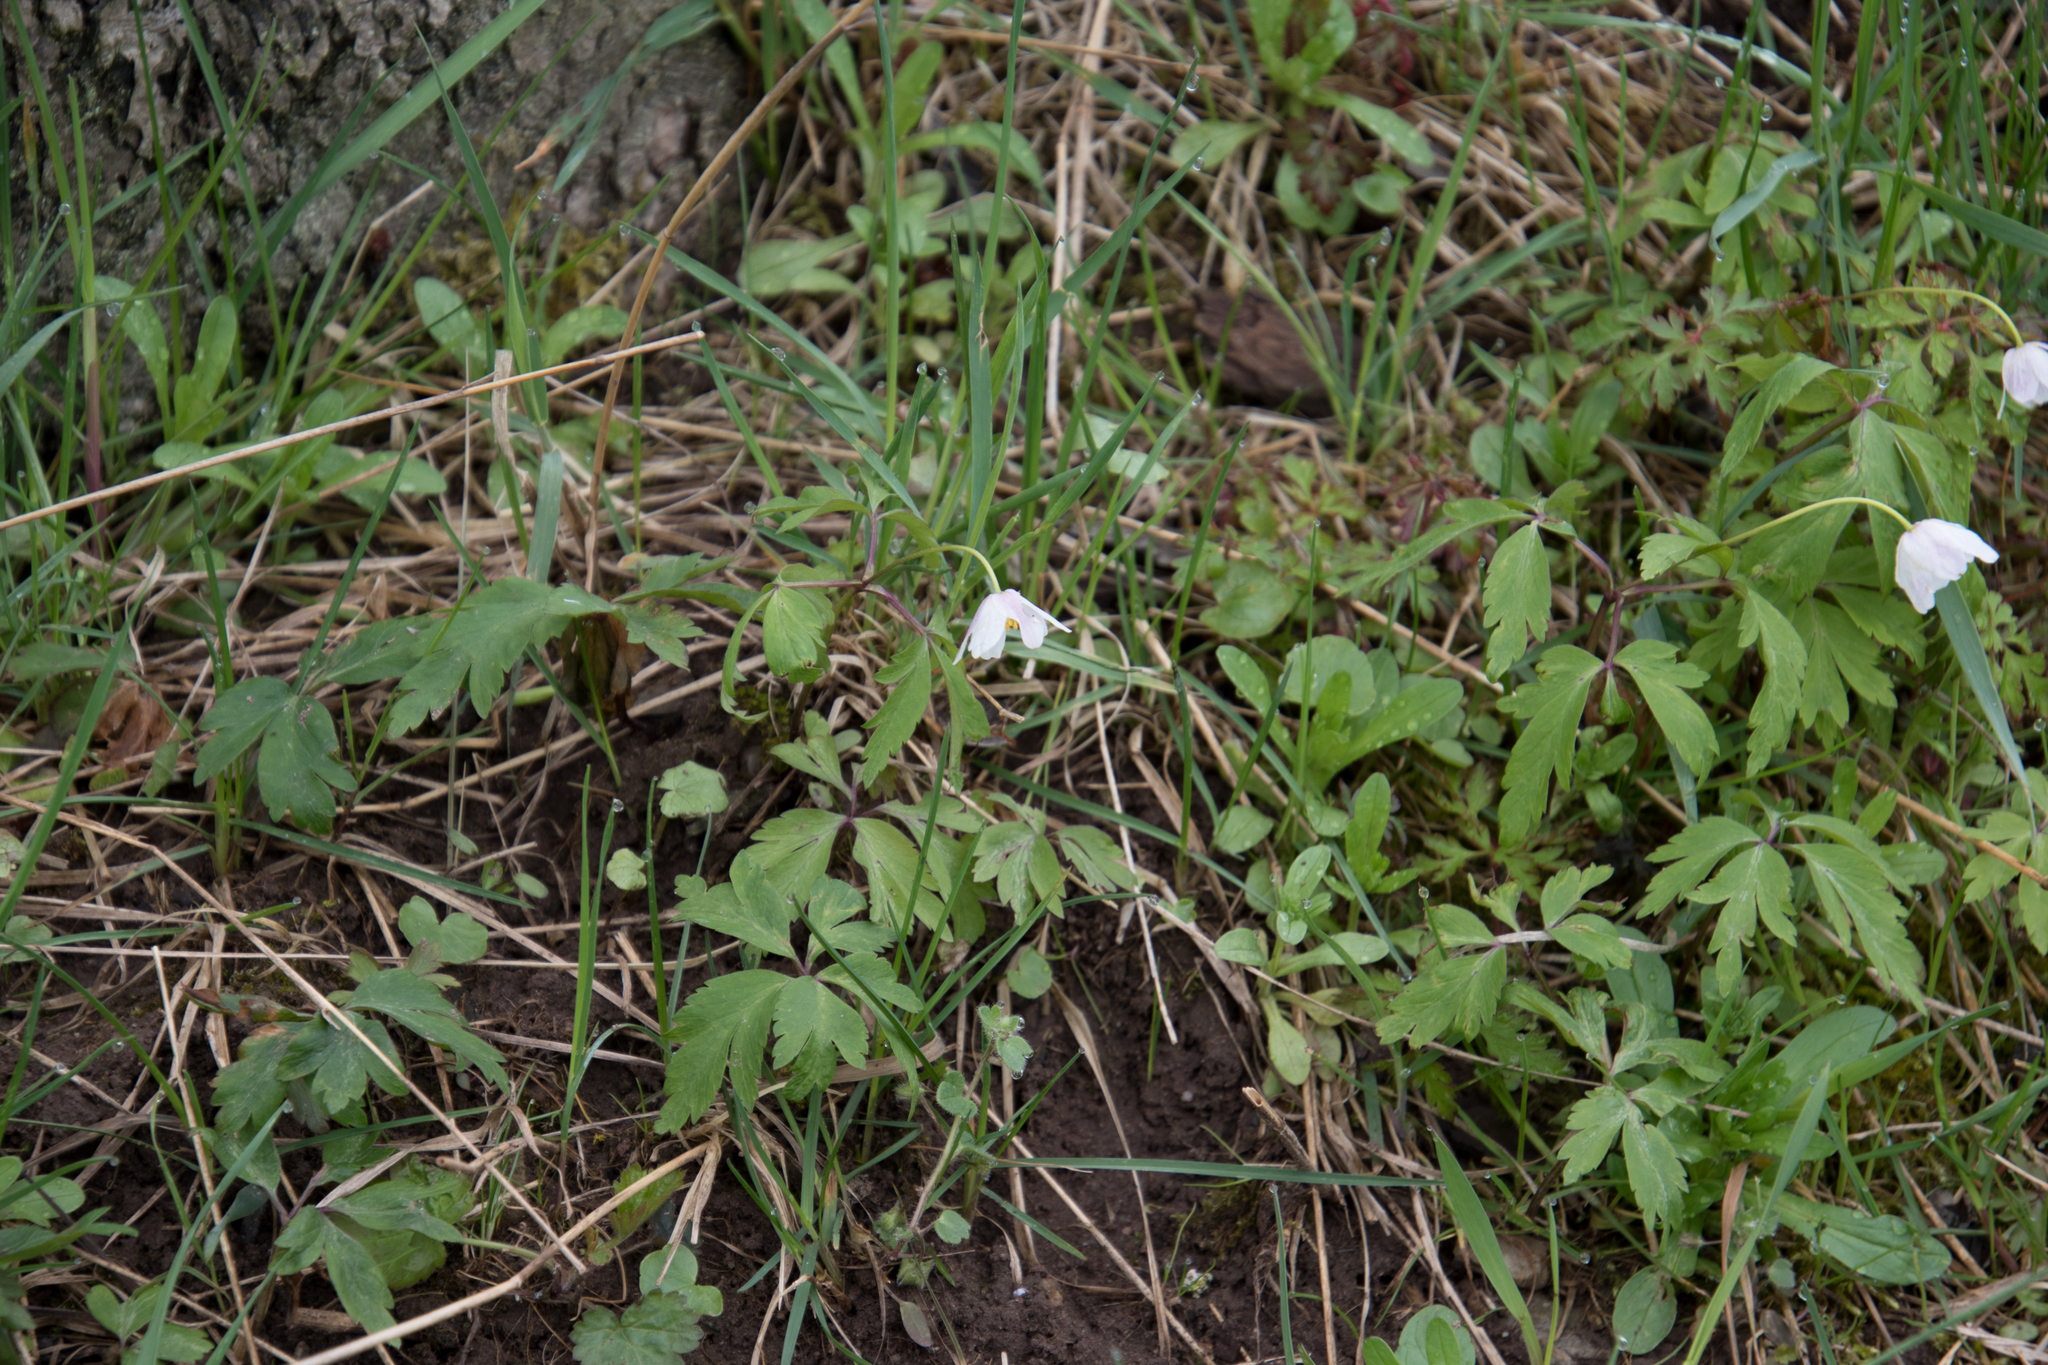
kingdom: Plantae
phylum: Tracheophyta
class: Magnoliopsida
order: Ranunculales
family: Ranunculaceae
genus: Anemone
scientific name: Anemone nemorosa
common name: Wood anemone
